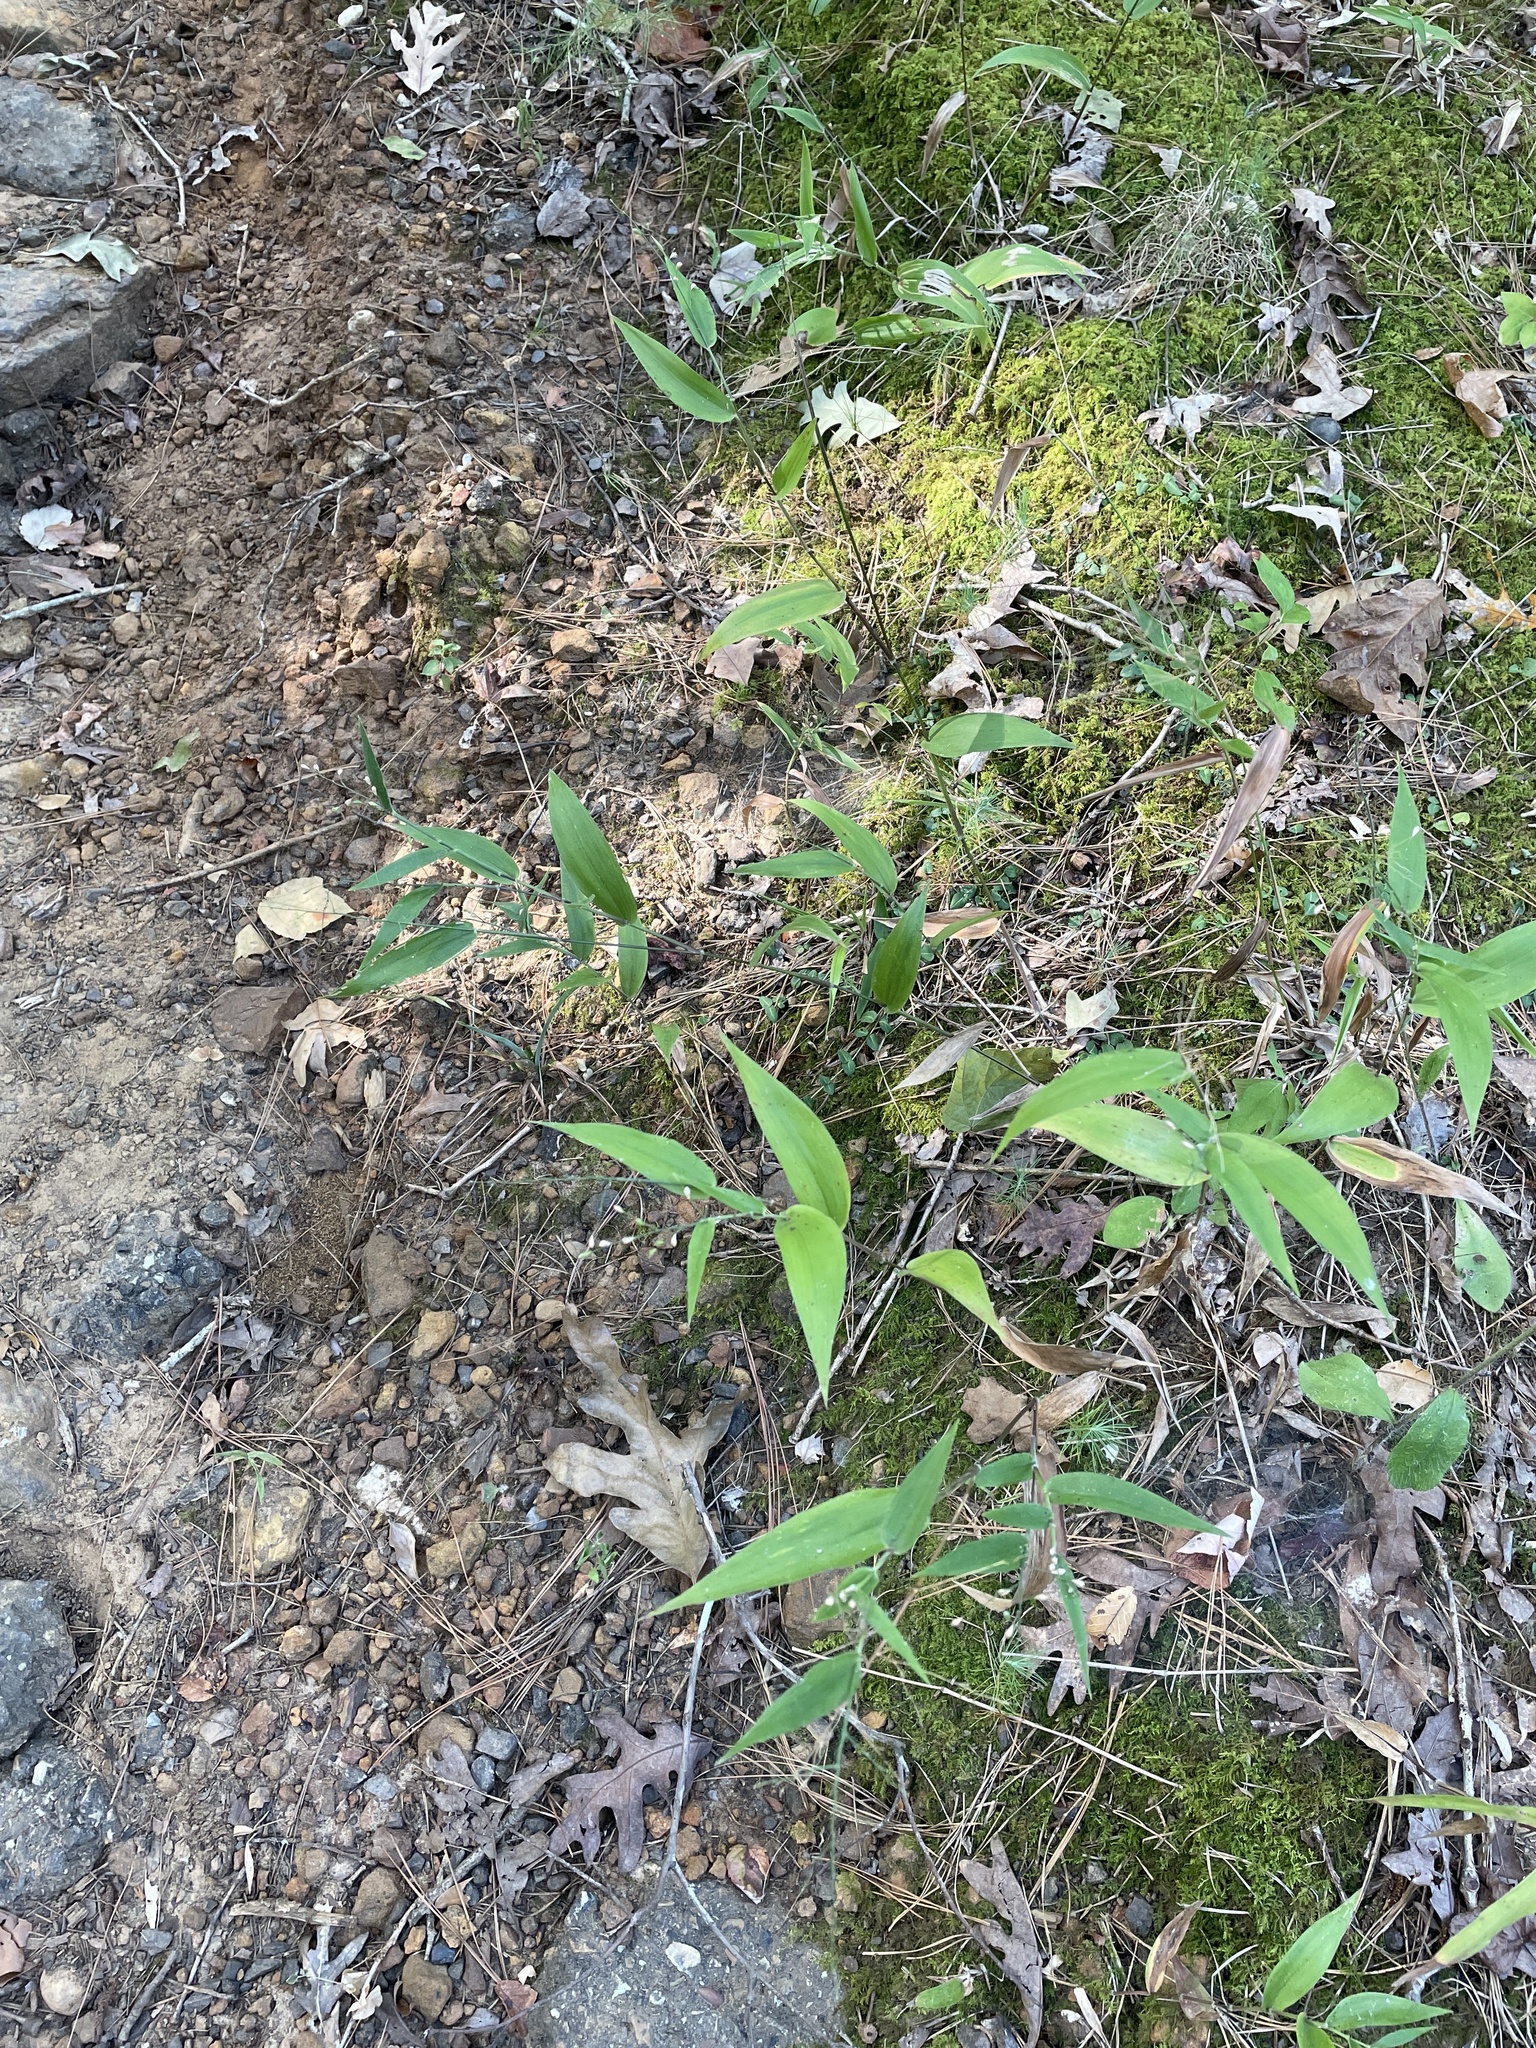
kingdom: Plantae
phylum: Tracheophyta
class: Liliopsida
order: Poales
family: Poaceae
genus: Dichanthelium
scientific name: Dichanthelium boscii
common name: Bosc's panic grass
